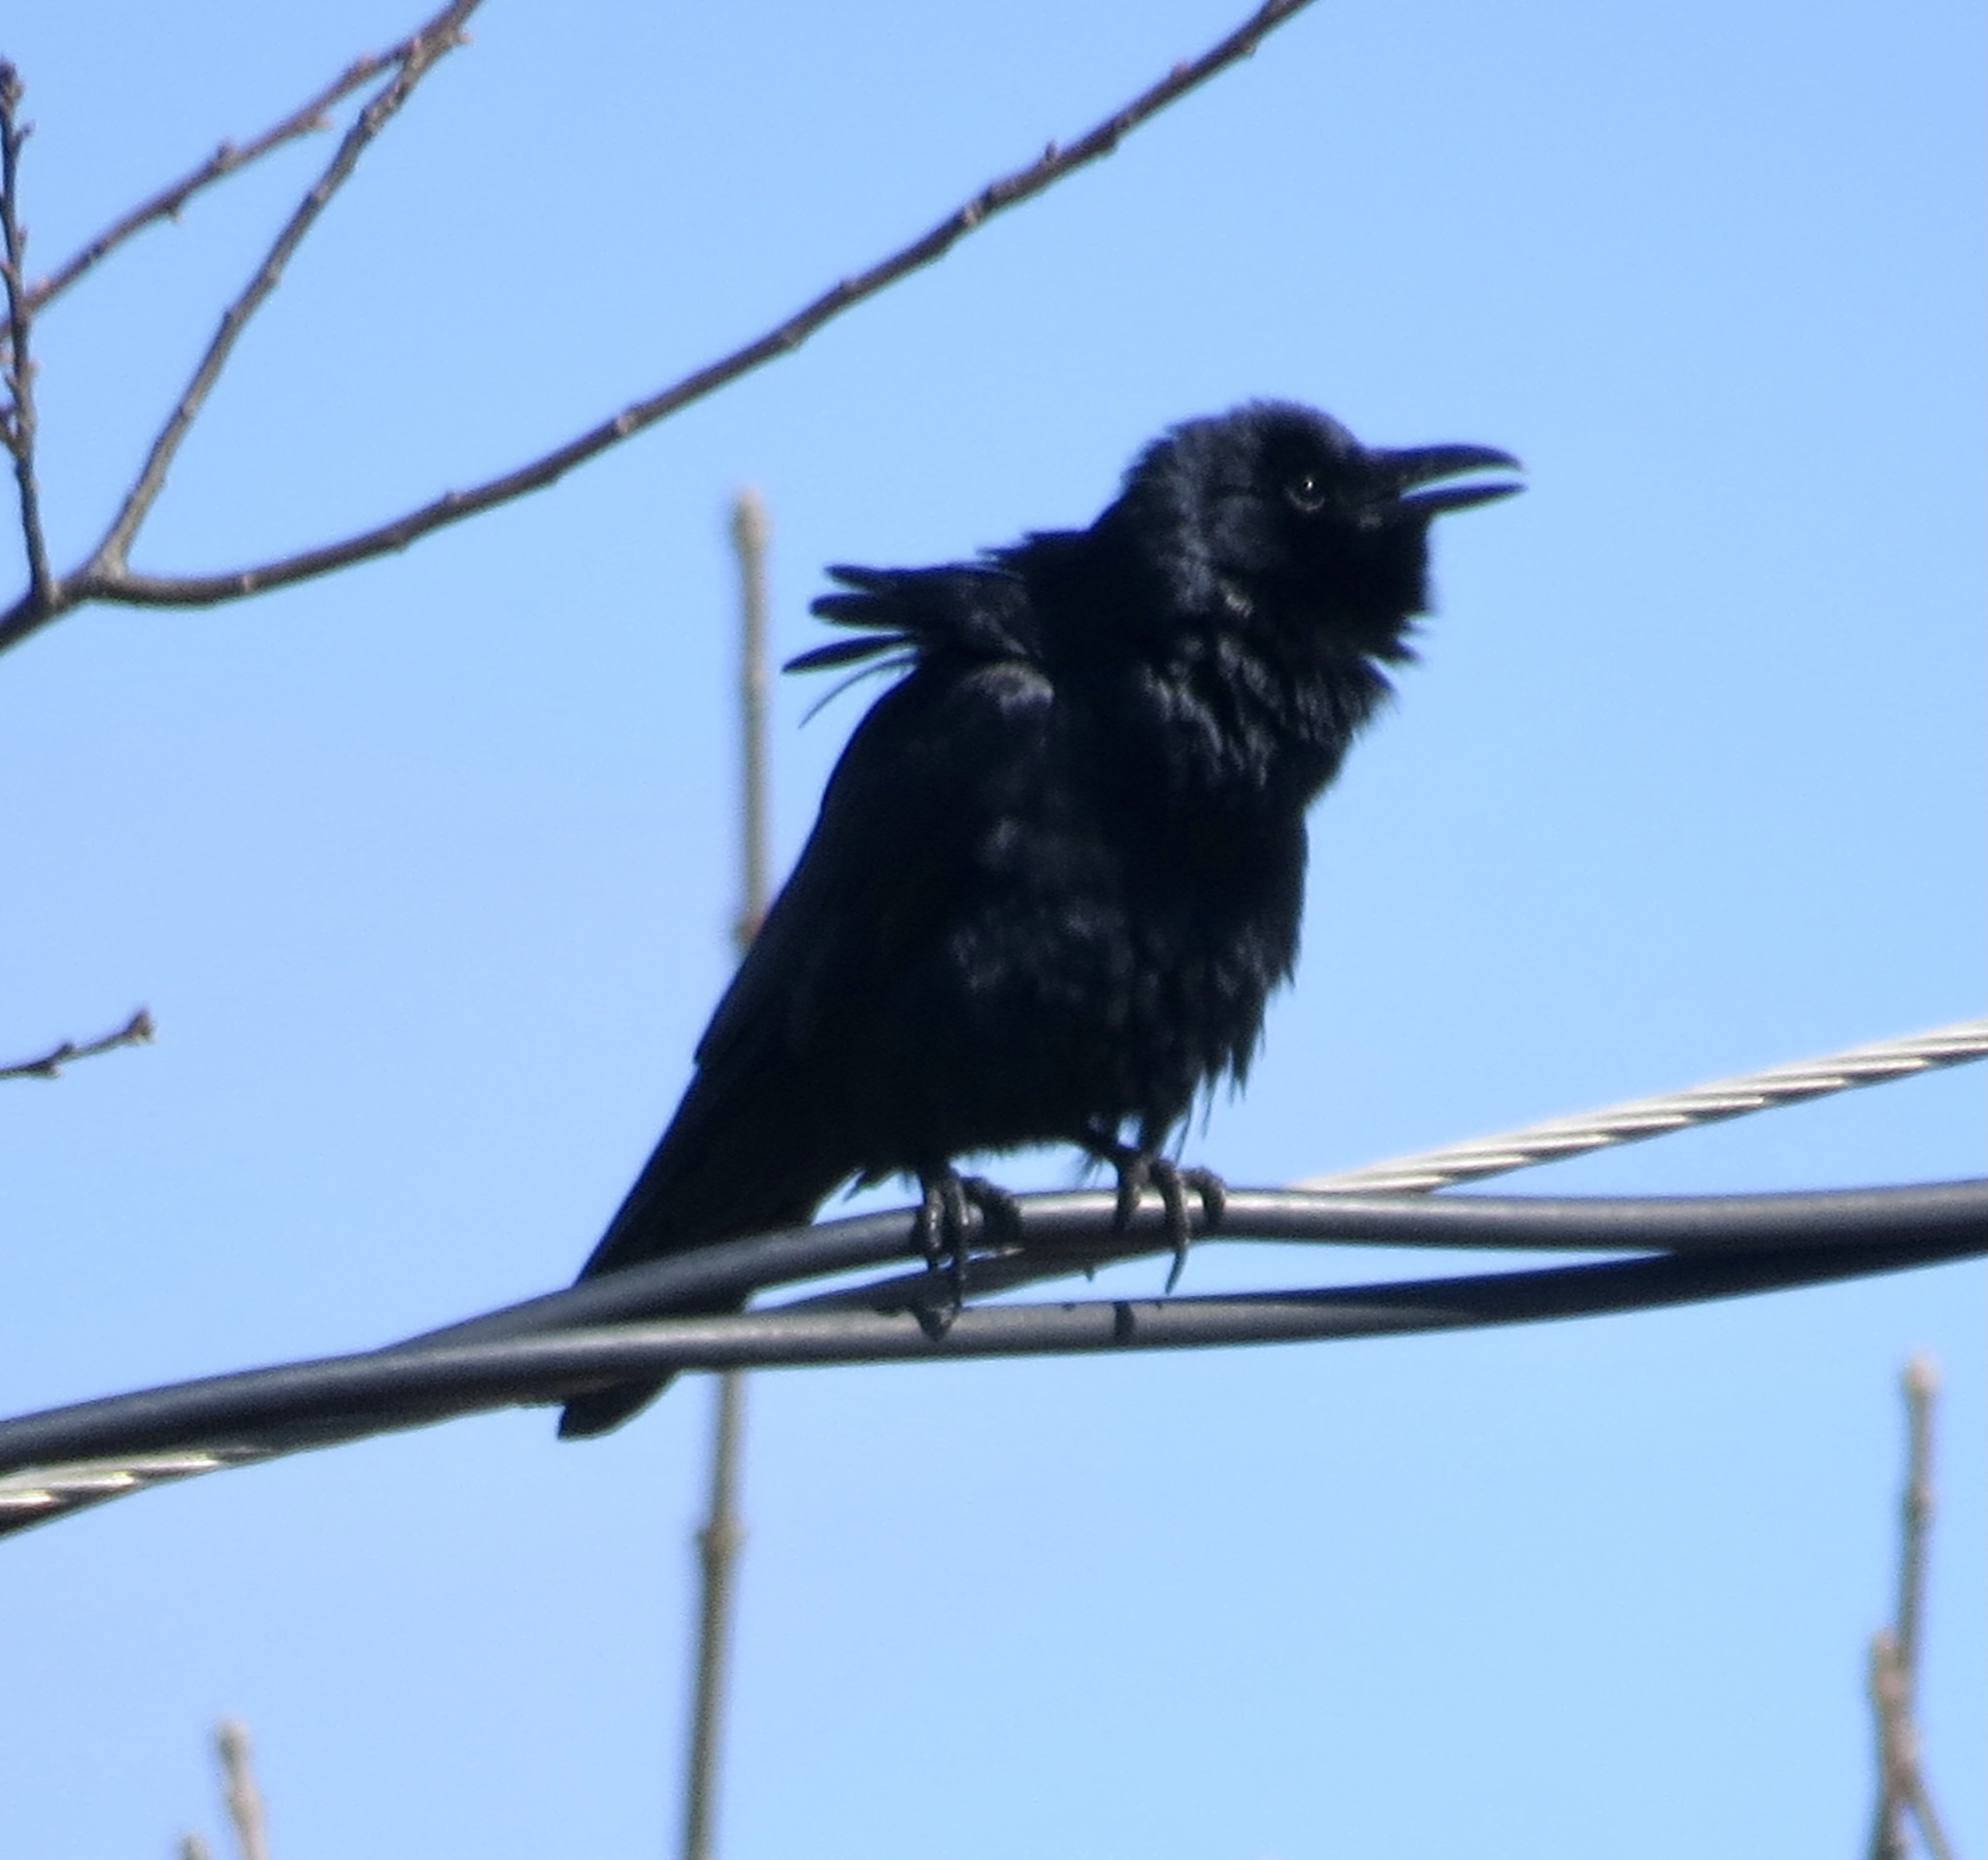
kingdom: Animalia
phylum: Chordata
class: Aves
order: Passeriformes
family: Corvidae
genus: Corvus
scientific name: Corvus ossifragus
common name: Fish crow
